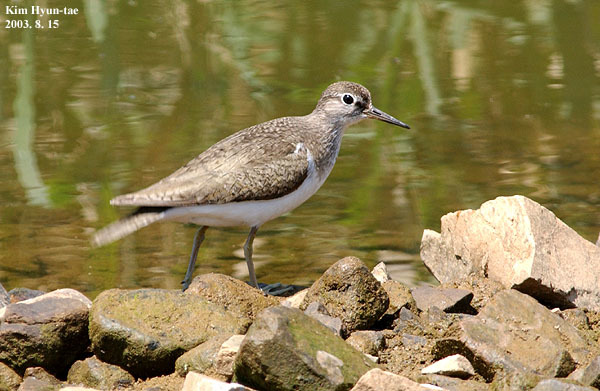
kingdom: Animalia
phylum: Chordata
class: Aves
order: Charadriiformes
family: Scolopacidae
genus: Actitis
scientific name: Actitis hypoleucos
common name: Common sandpiper
